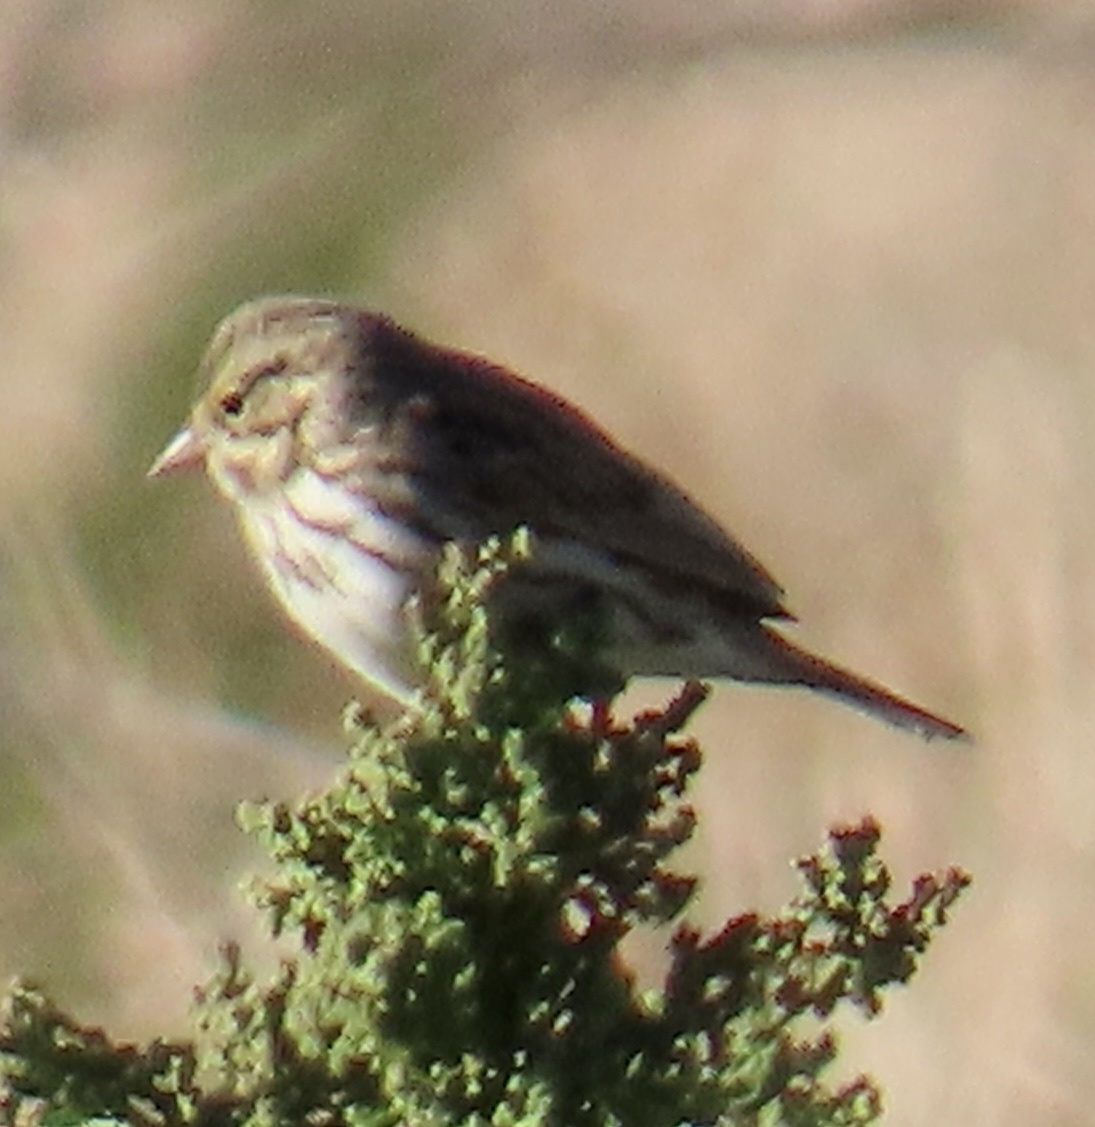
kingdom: Animalia
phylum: Chordata
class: Aves
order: Passeriformes
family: Passerellidae
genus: Passerculus
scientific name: Passerculus sandwichensis
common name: Savannah sparrow
